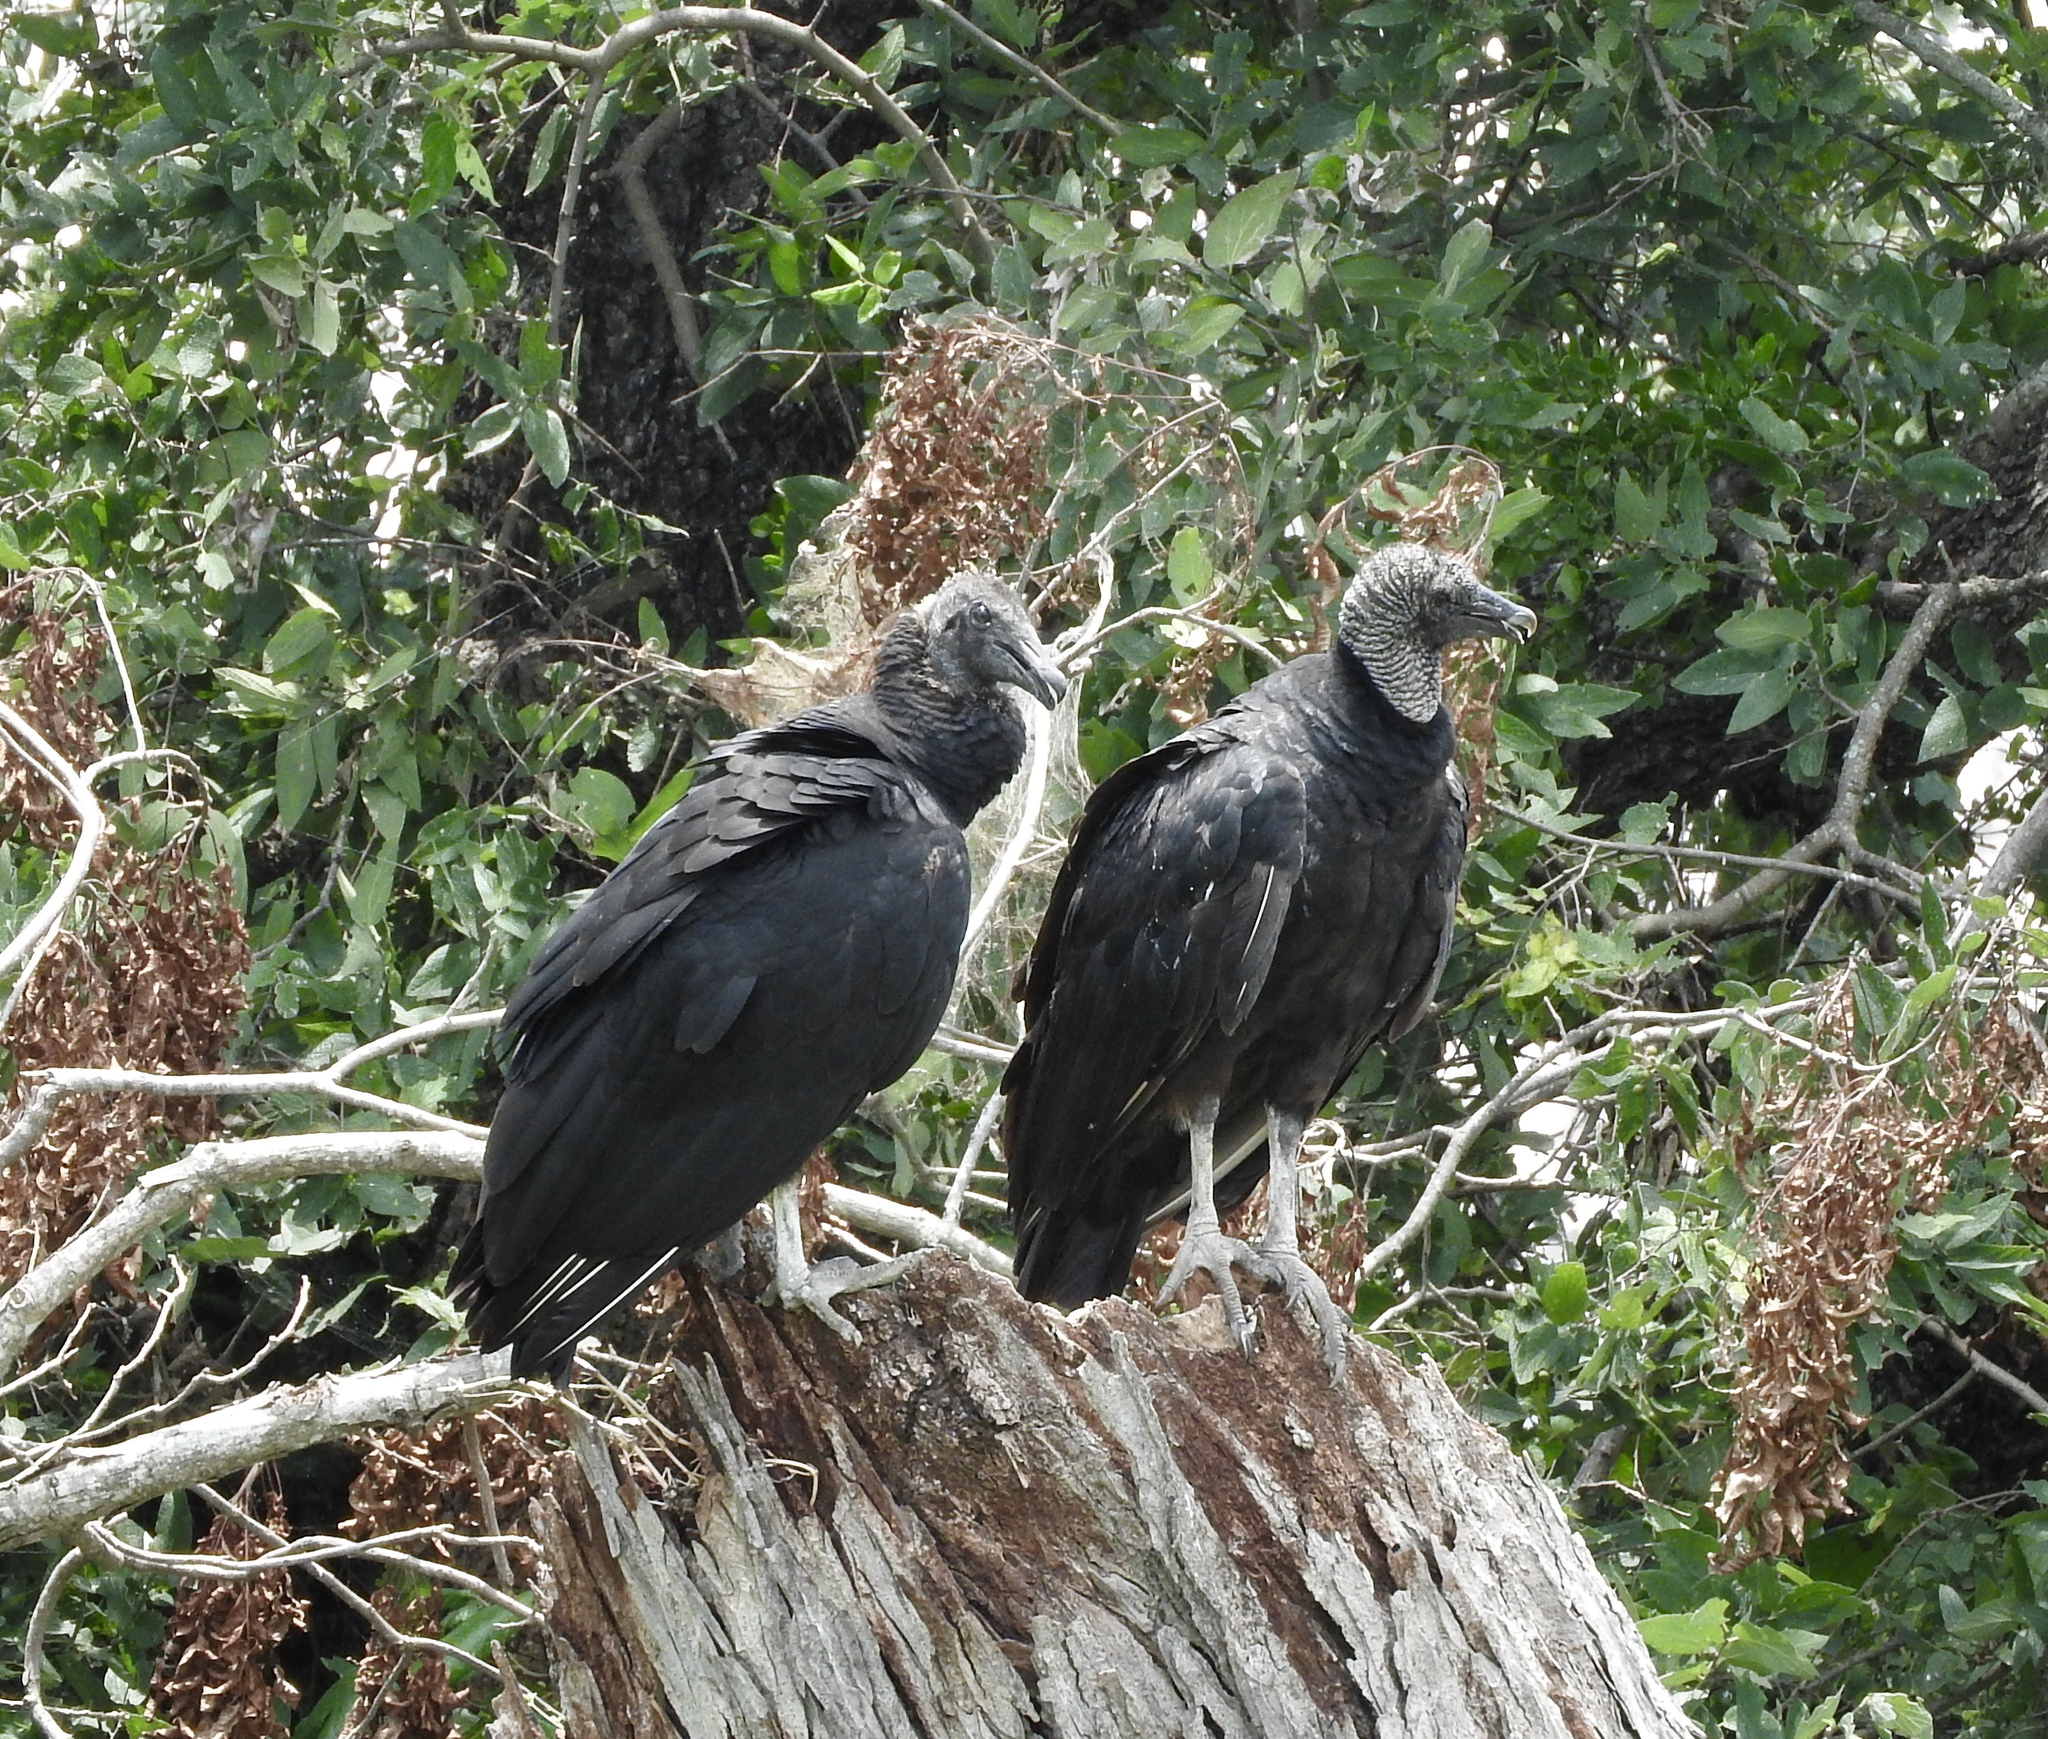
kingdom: Animalia
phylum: Chordata
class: Aves
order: Accipitriformes
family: Cathartidae
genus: Coragyps
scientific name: Coragyps atratus
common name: Black vulture
